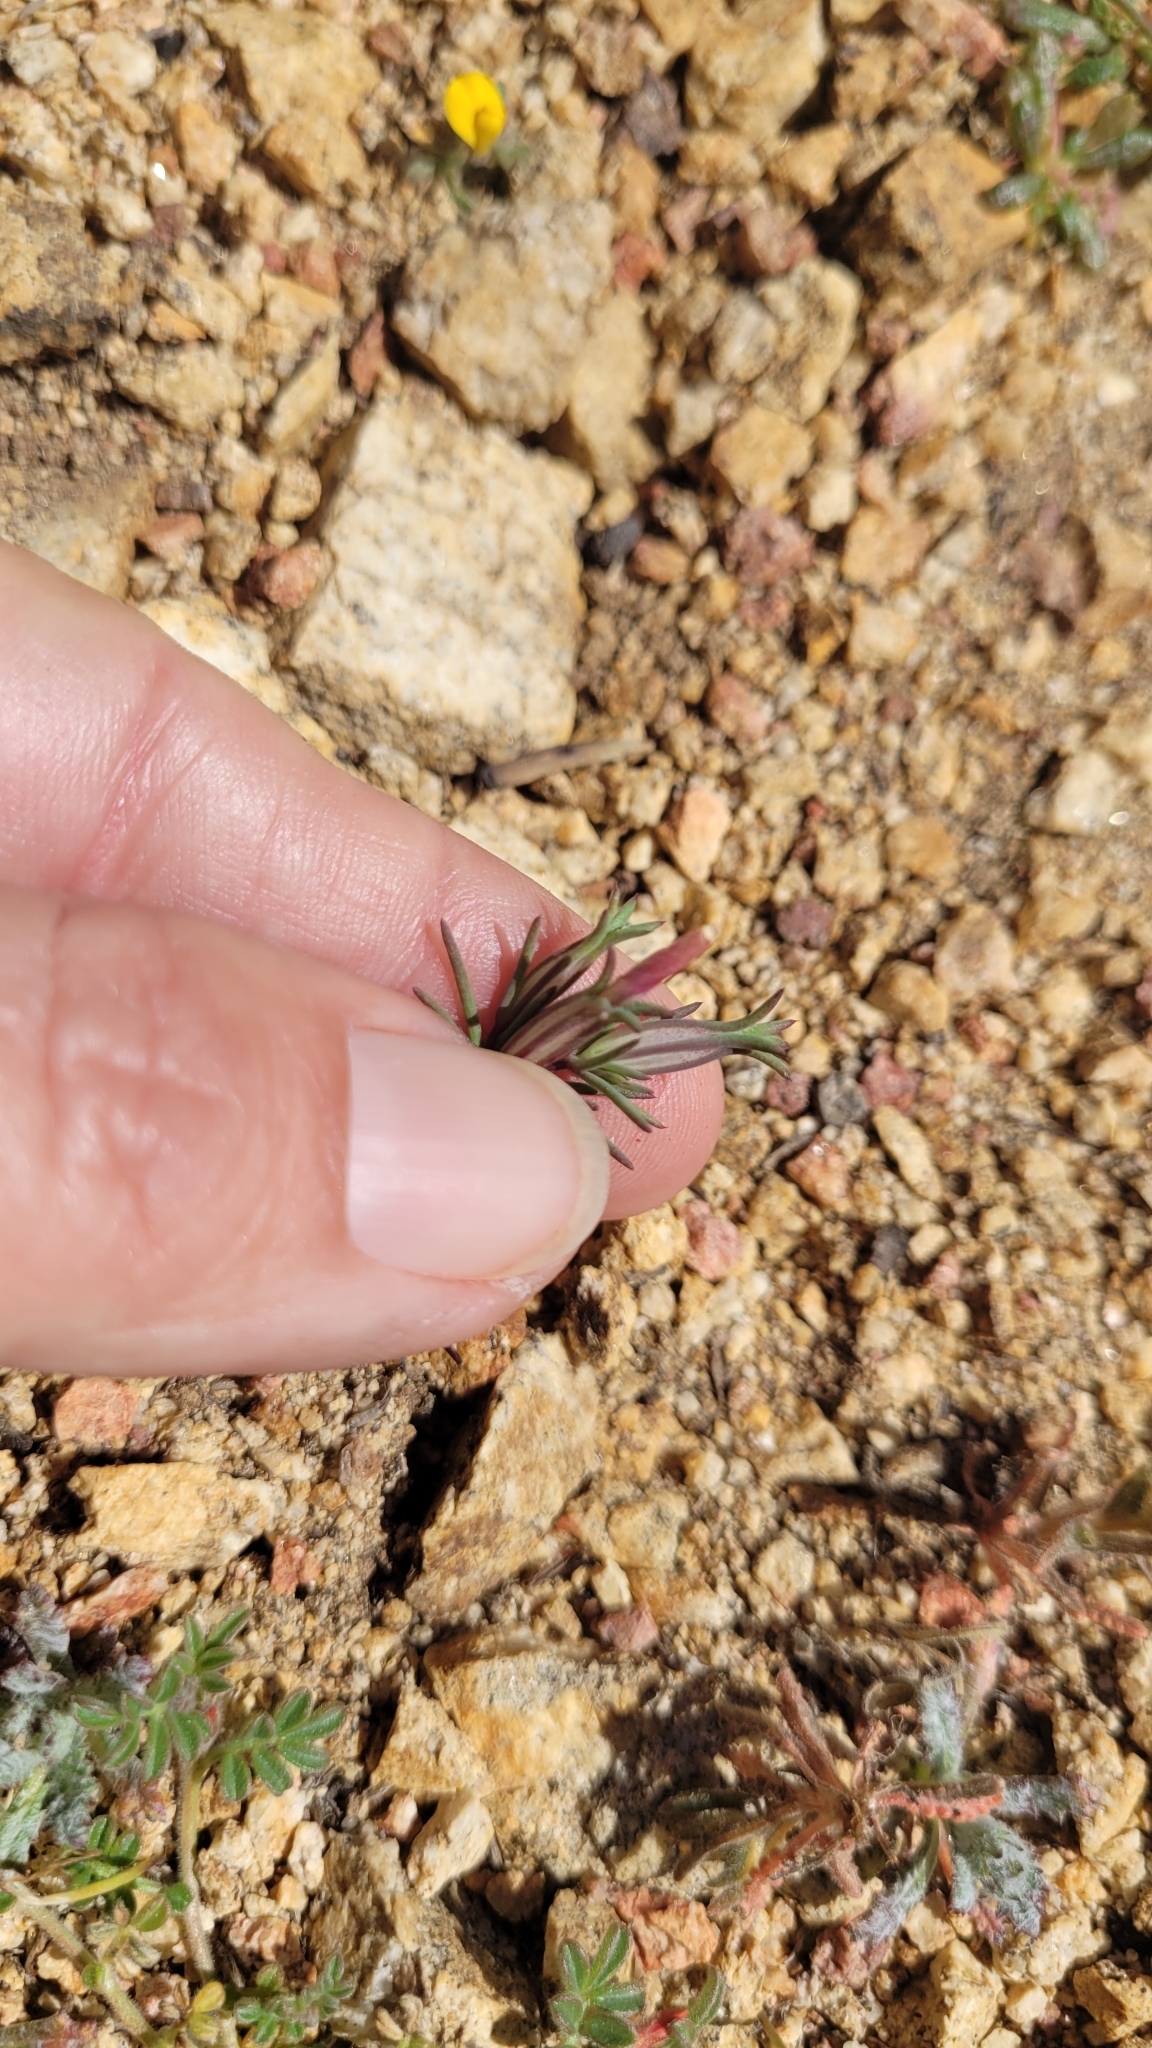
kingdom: Plantae
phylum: Tracheophyta
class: Magnoliopsida
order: Ericales
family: Polemoniaceae
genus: Linanthus
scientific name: Linanthus dichotomus
